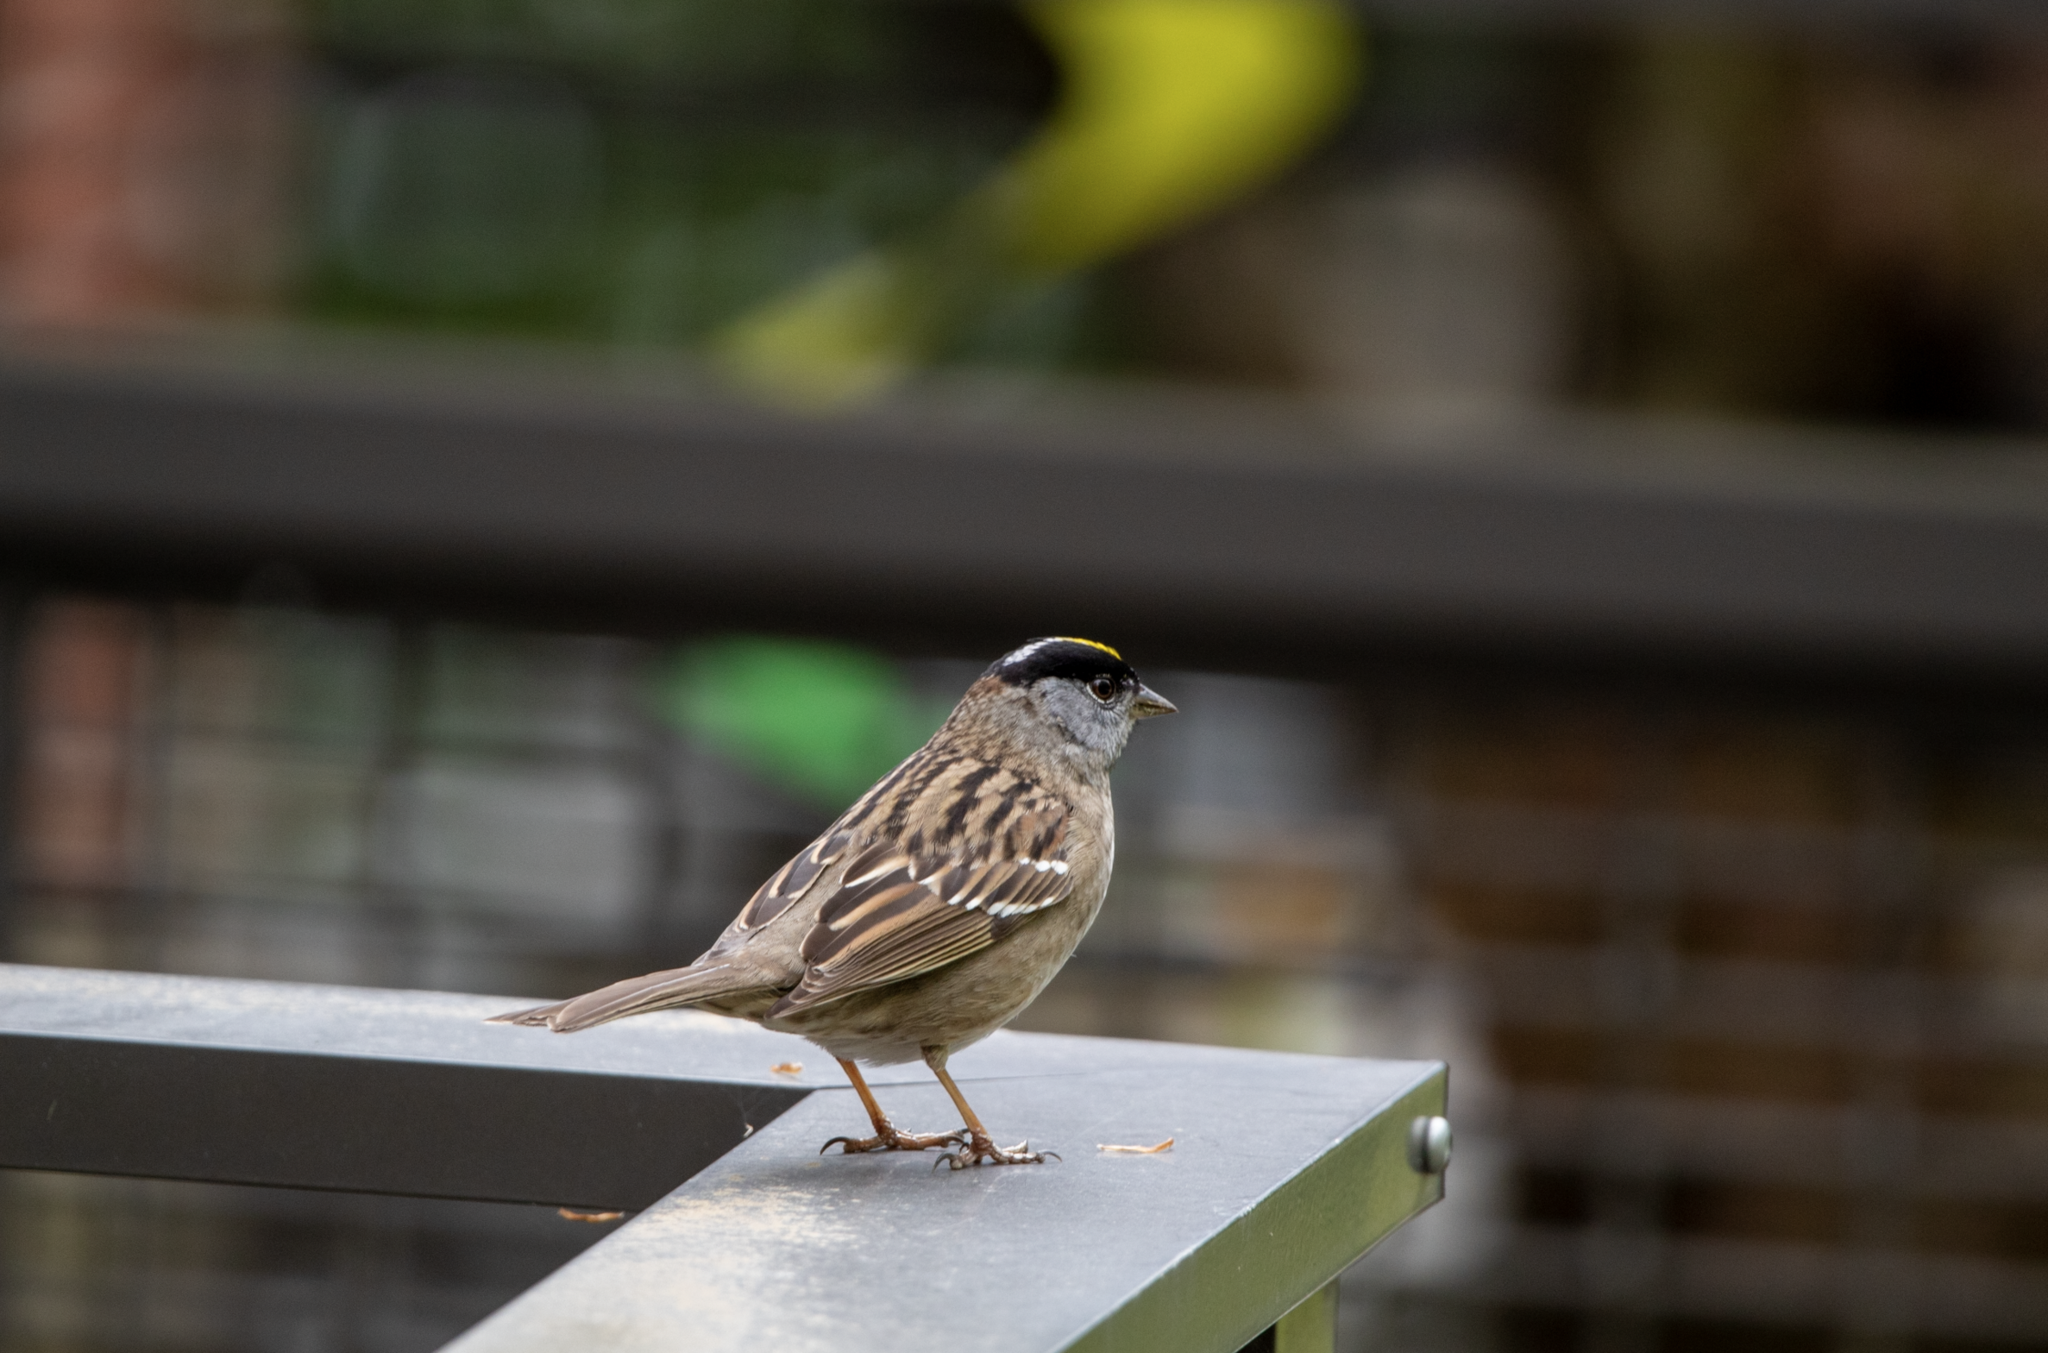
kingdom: Animalia
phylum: Chordata
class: Aves
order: Passeriformes
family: Passerellidae
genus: Zonotrichia
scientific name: Zonotrichia atricapilla
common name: Golden-crowned sparrow
